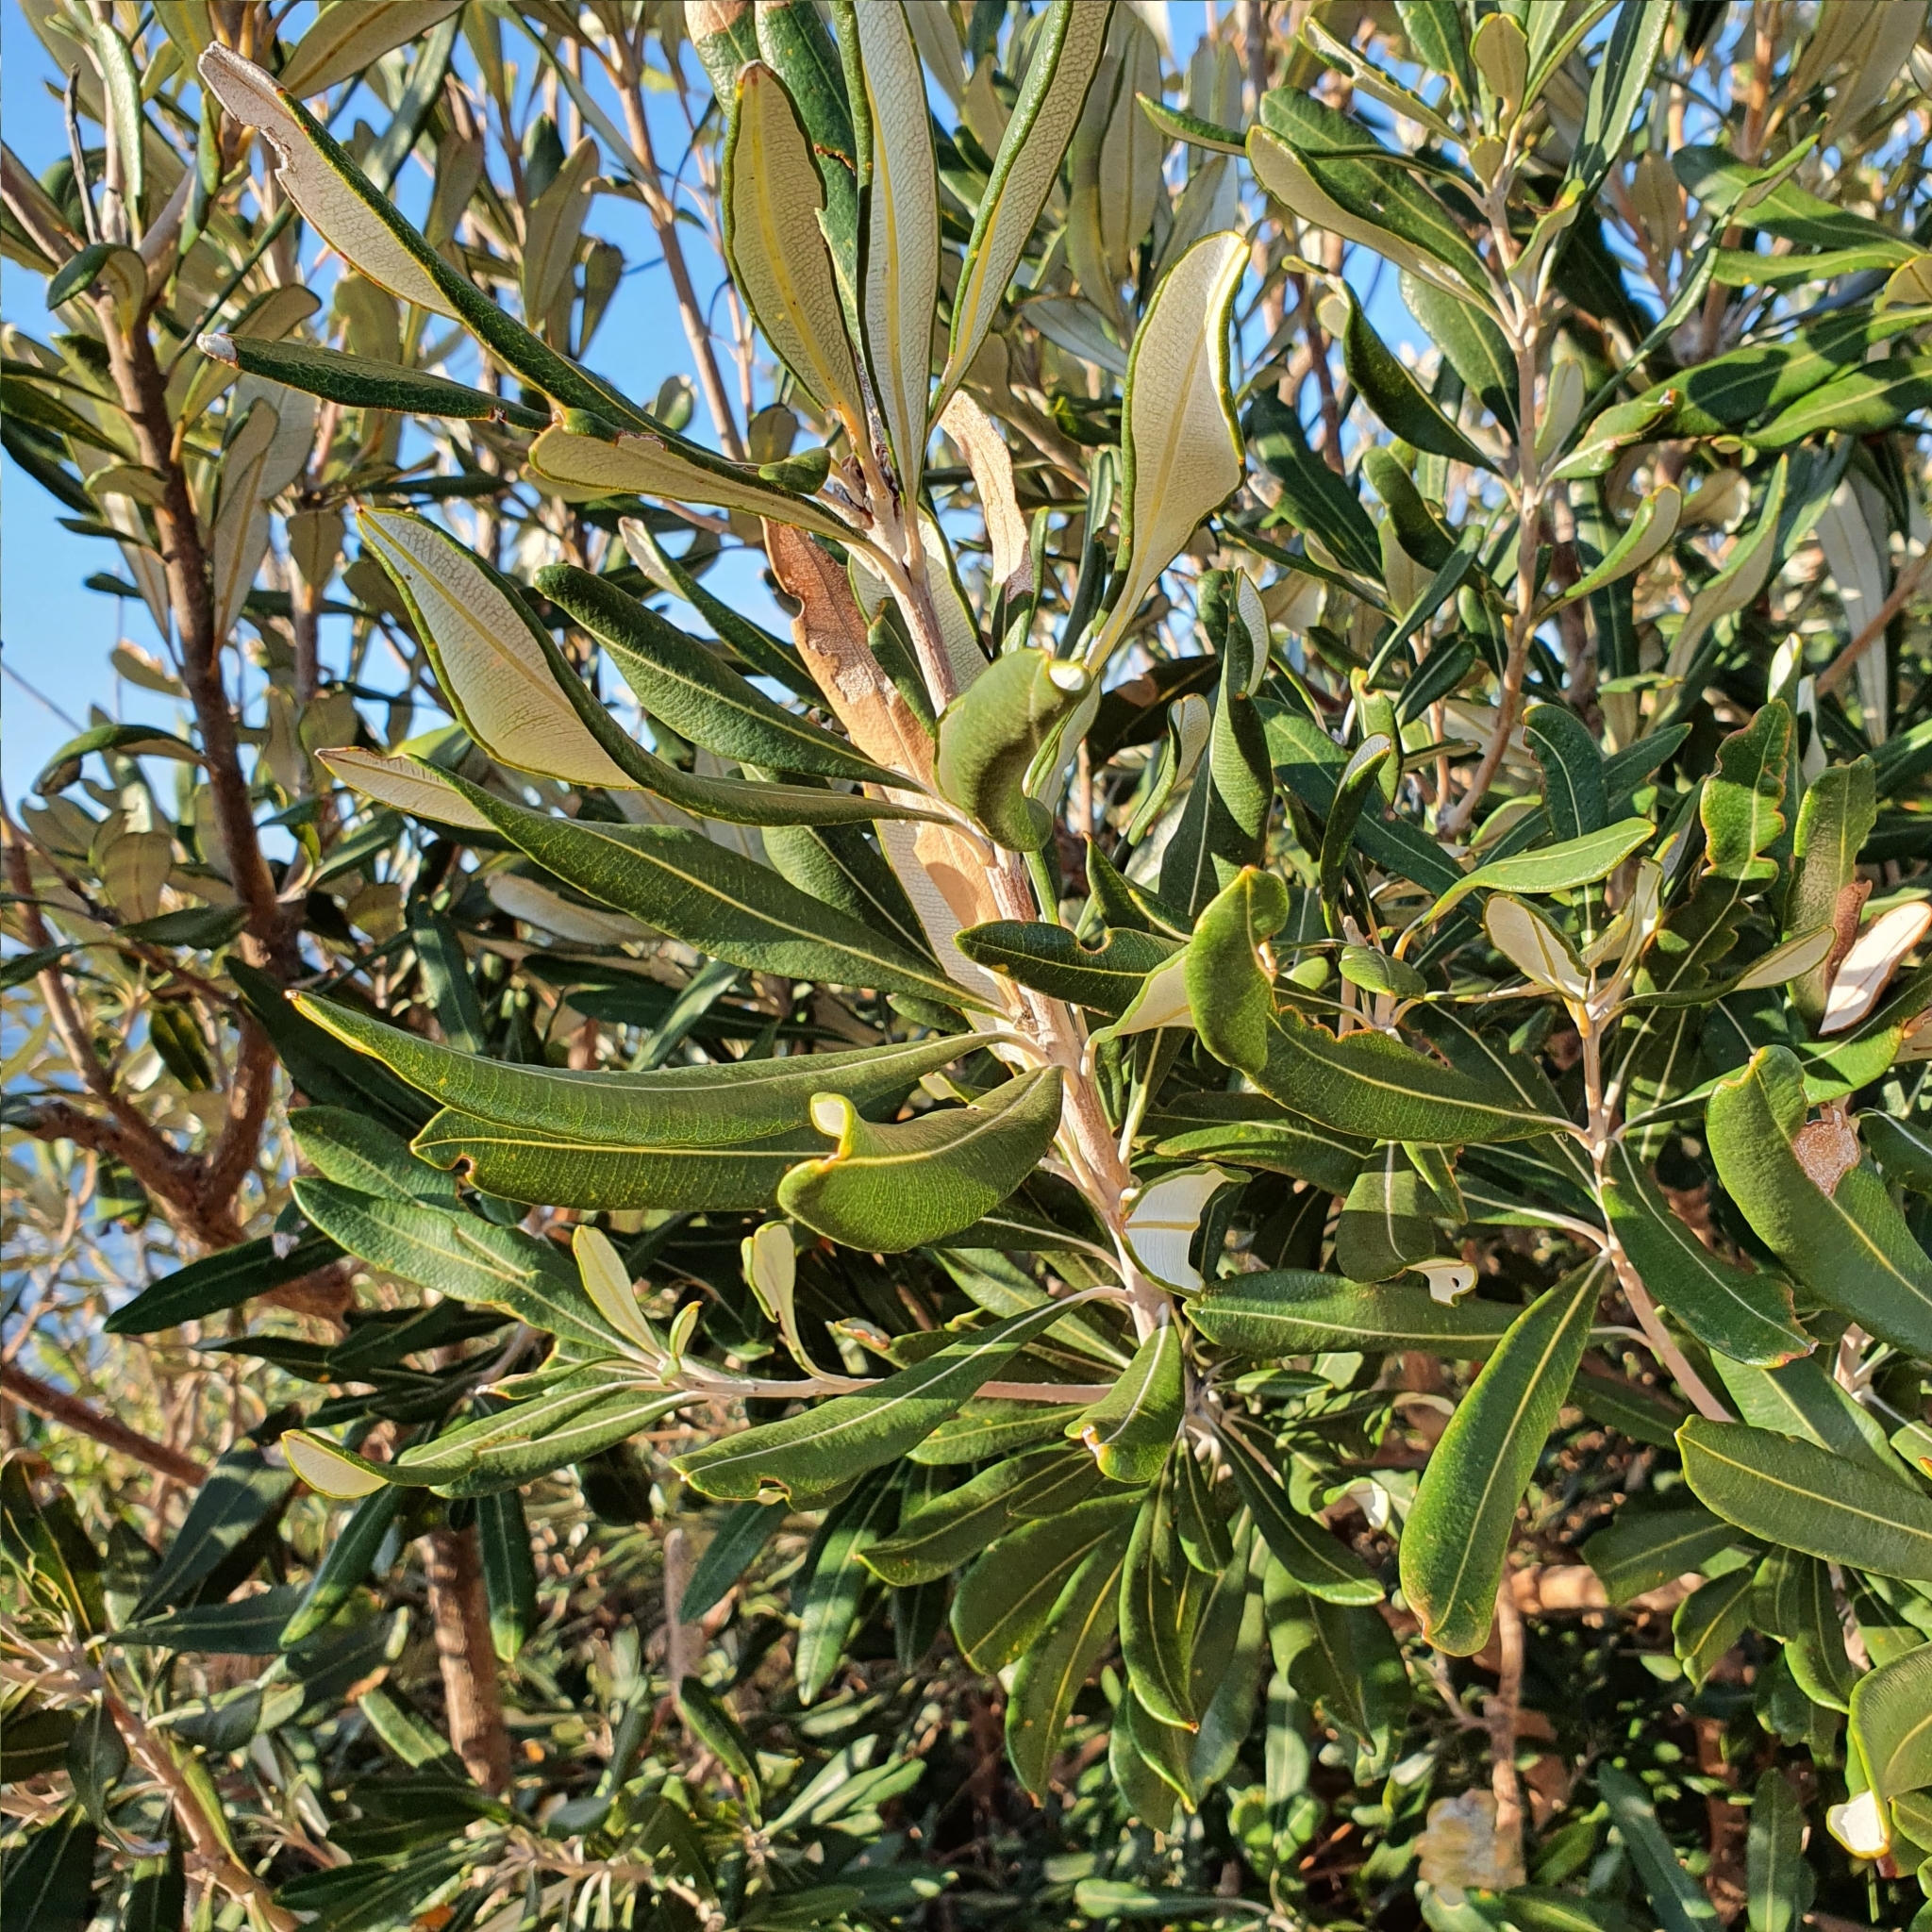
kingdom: Plantae
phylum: Tracheophyta
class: Magnoliopsida
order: Proteales
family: Proteaceae
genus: Banksia
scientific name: Banksia integrifolia
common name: White-honeysuckle
